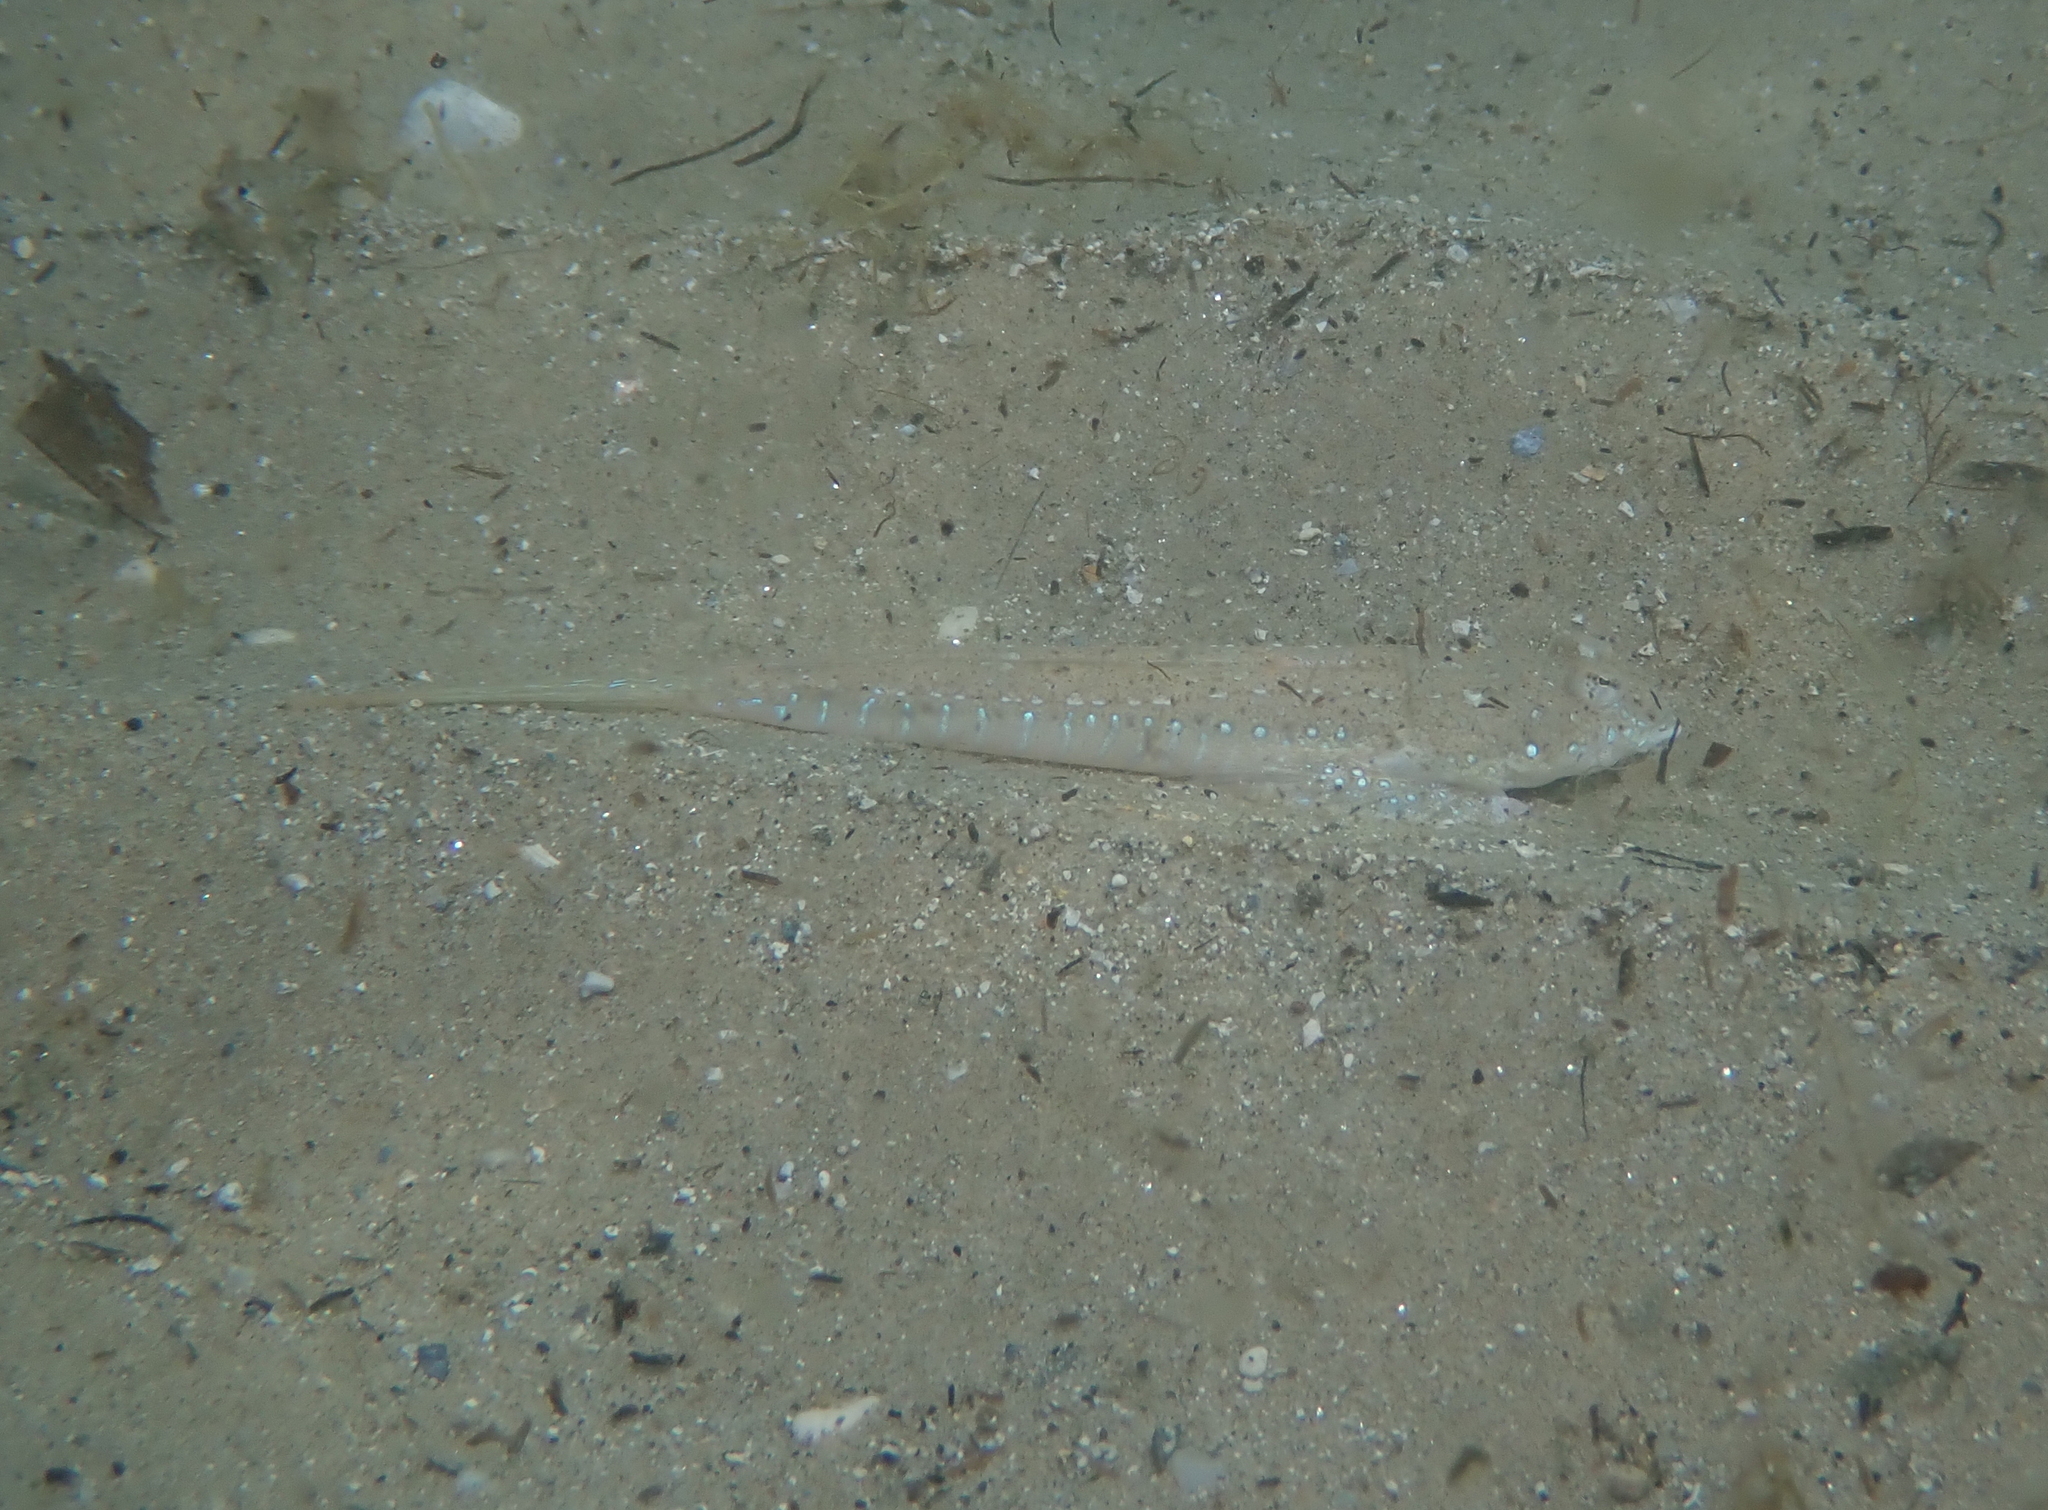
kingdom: Animalia
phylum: Chordata
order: Perciformes
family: Callionymidae
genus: Callionymus
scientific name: Callionymus pusillus
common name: Sailfin dragonet
